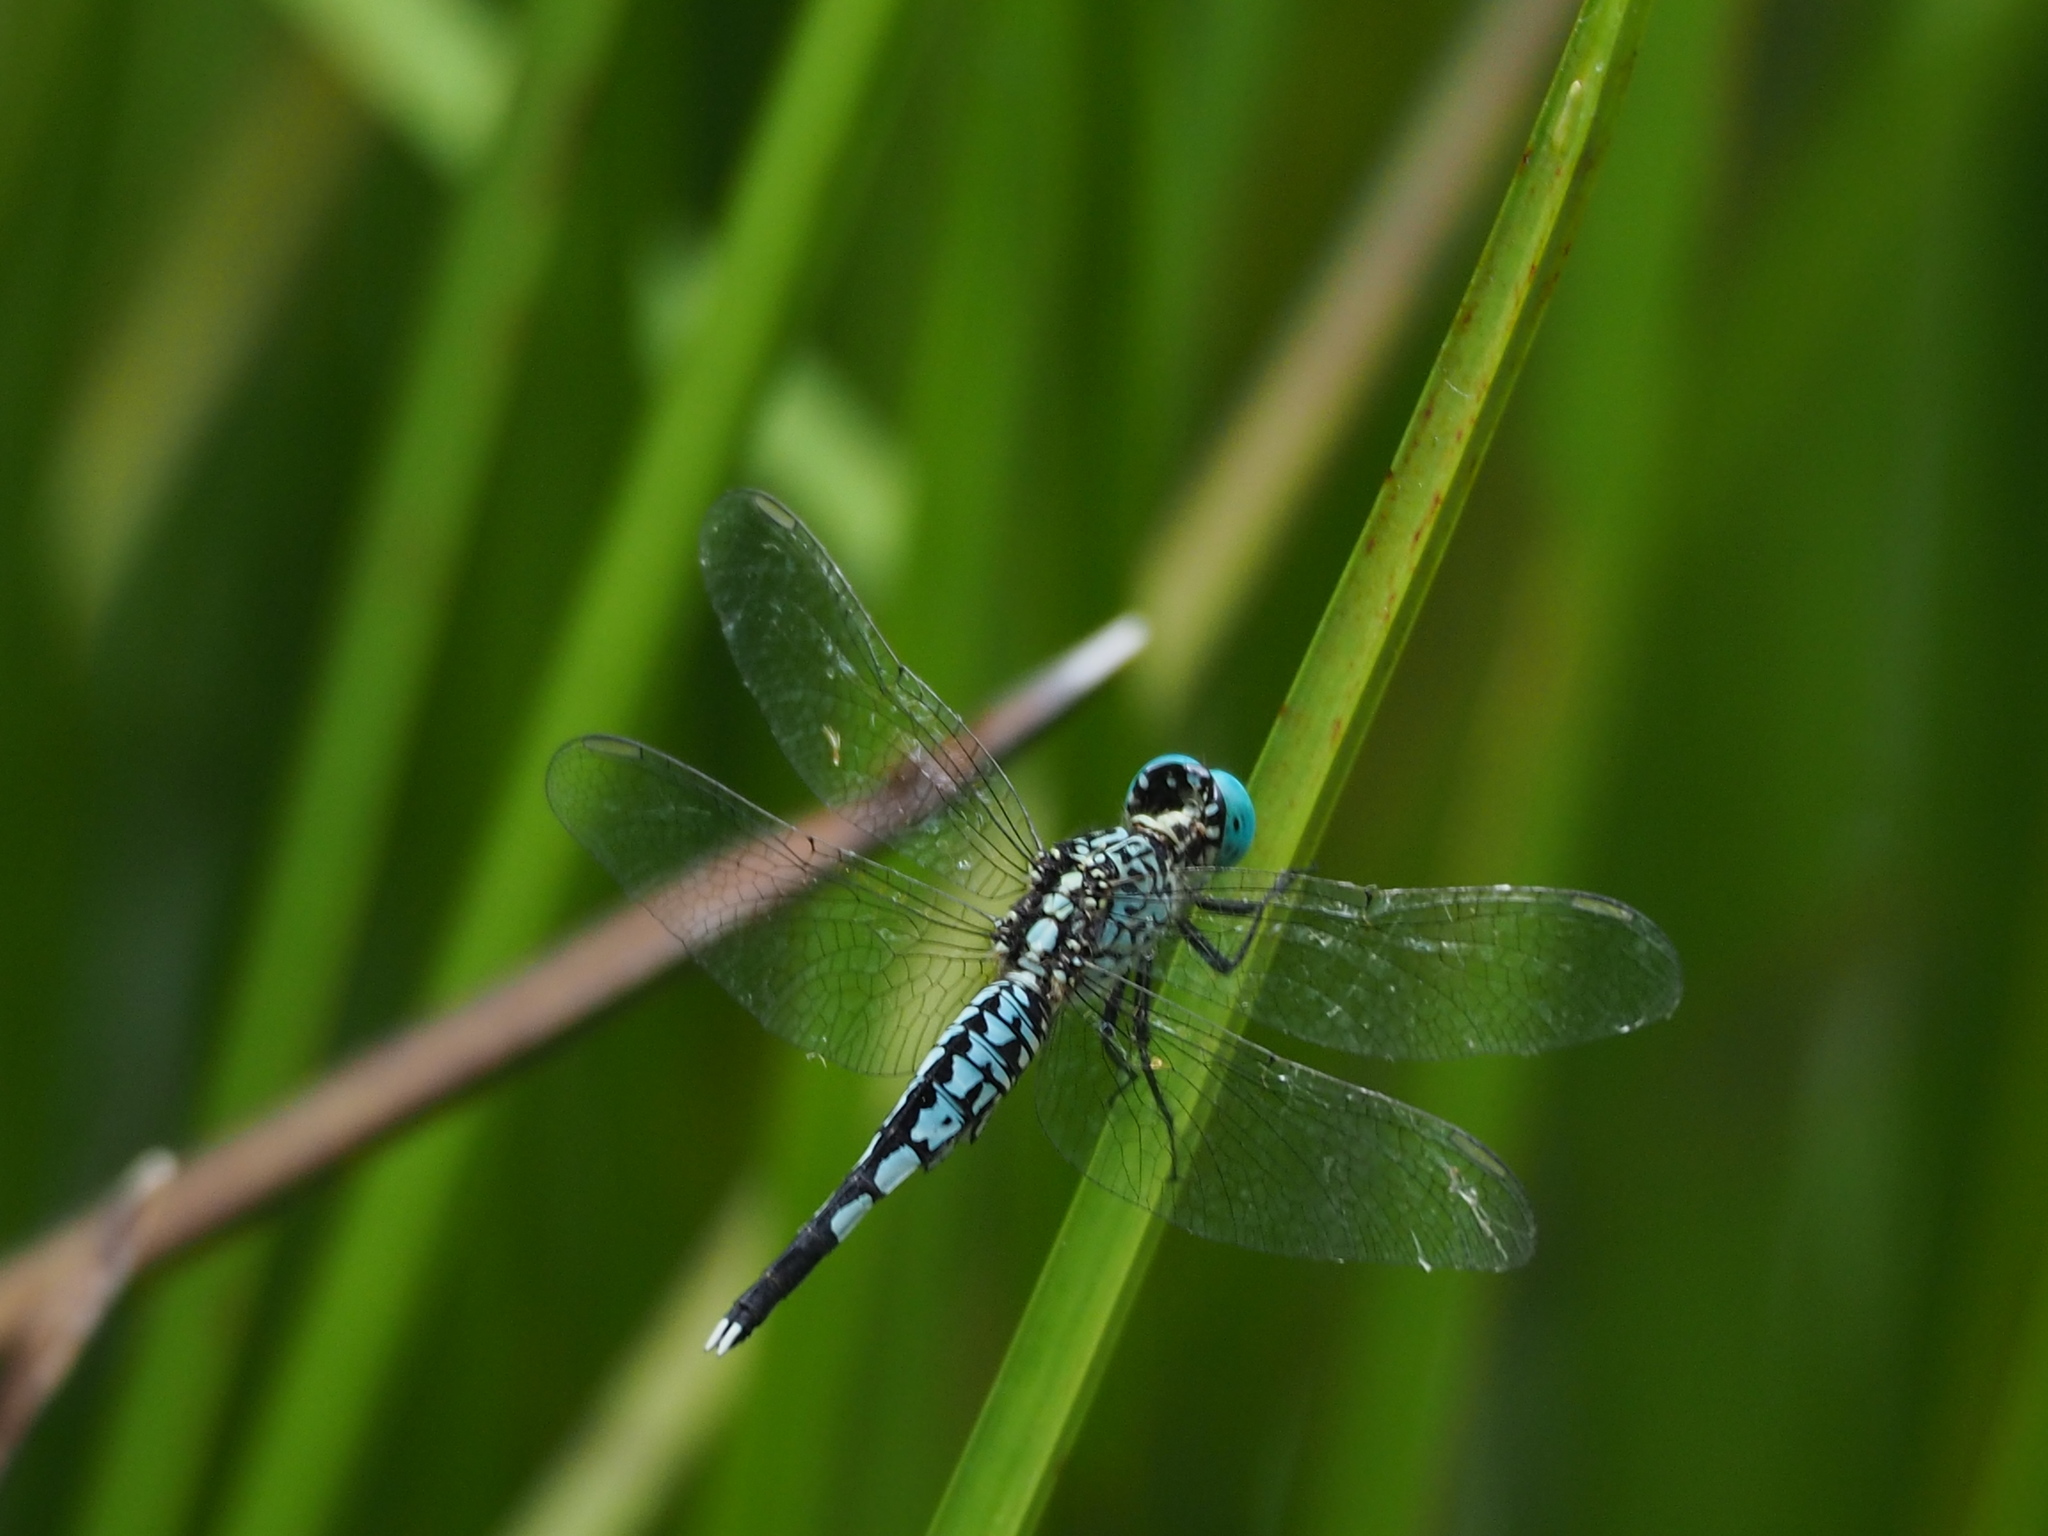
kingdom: Animalia
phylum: Arthropoda
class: Insecta
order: Odonata
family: Libellulidae
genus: Acisoma
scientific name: Acisoma panorpoides
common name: Asian pintail
